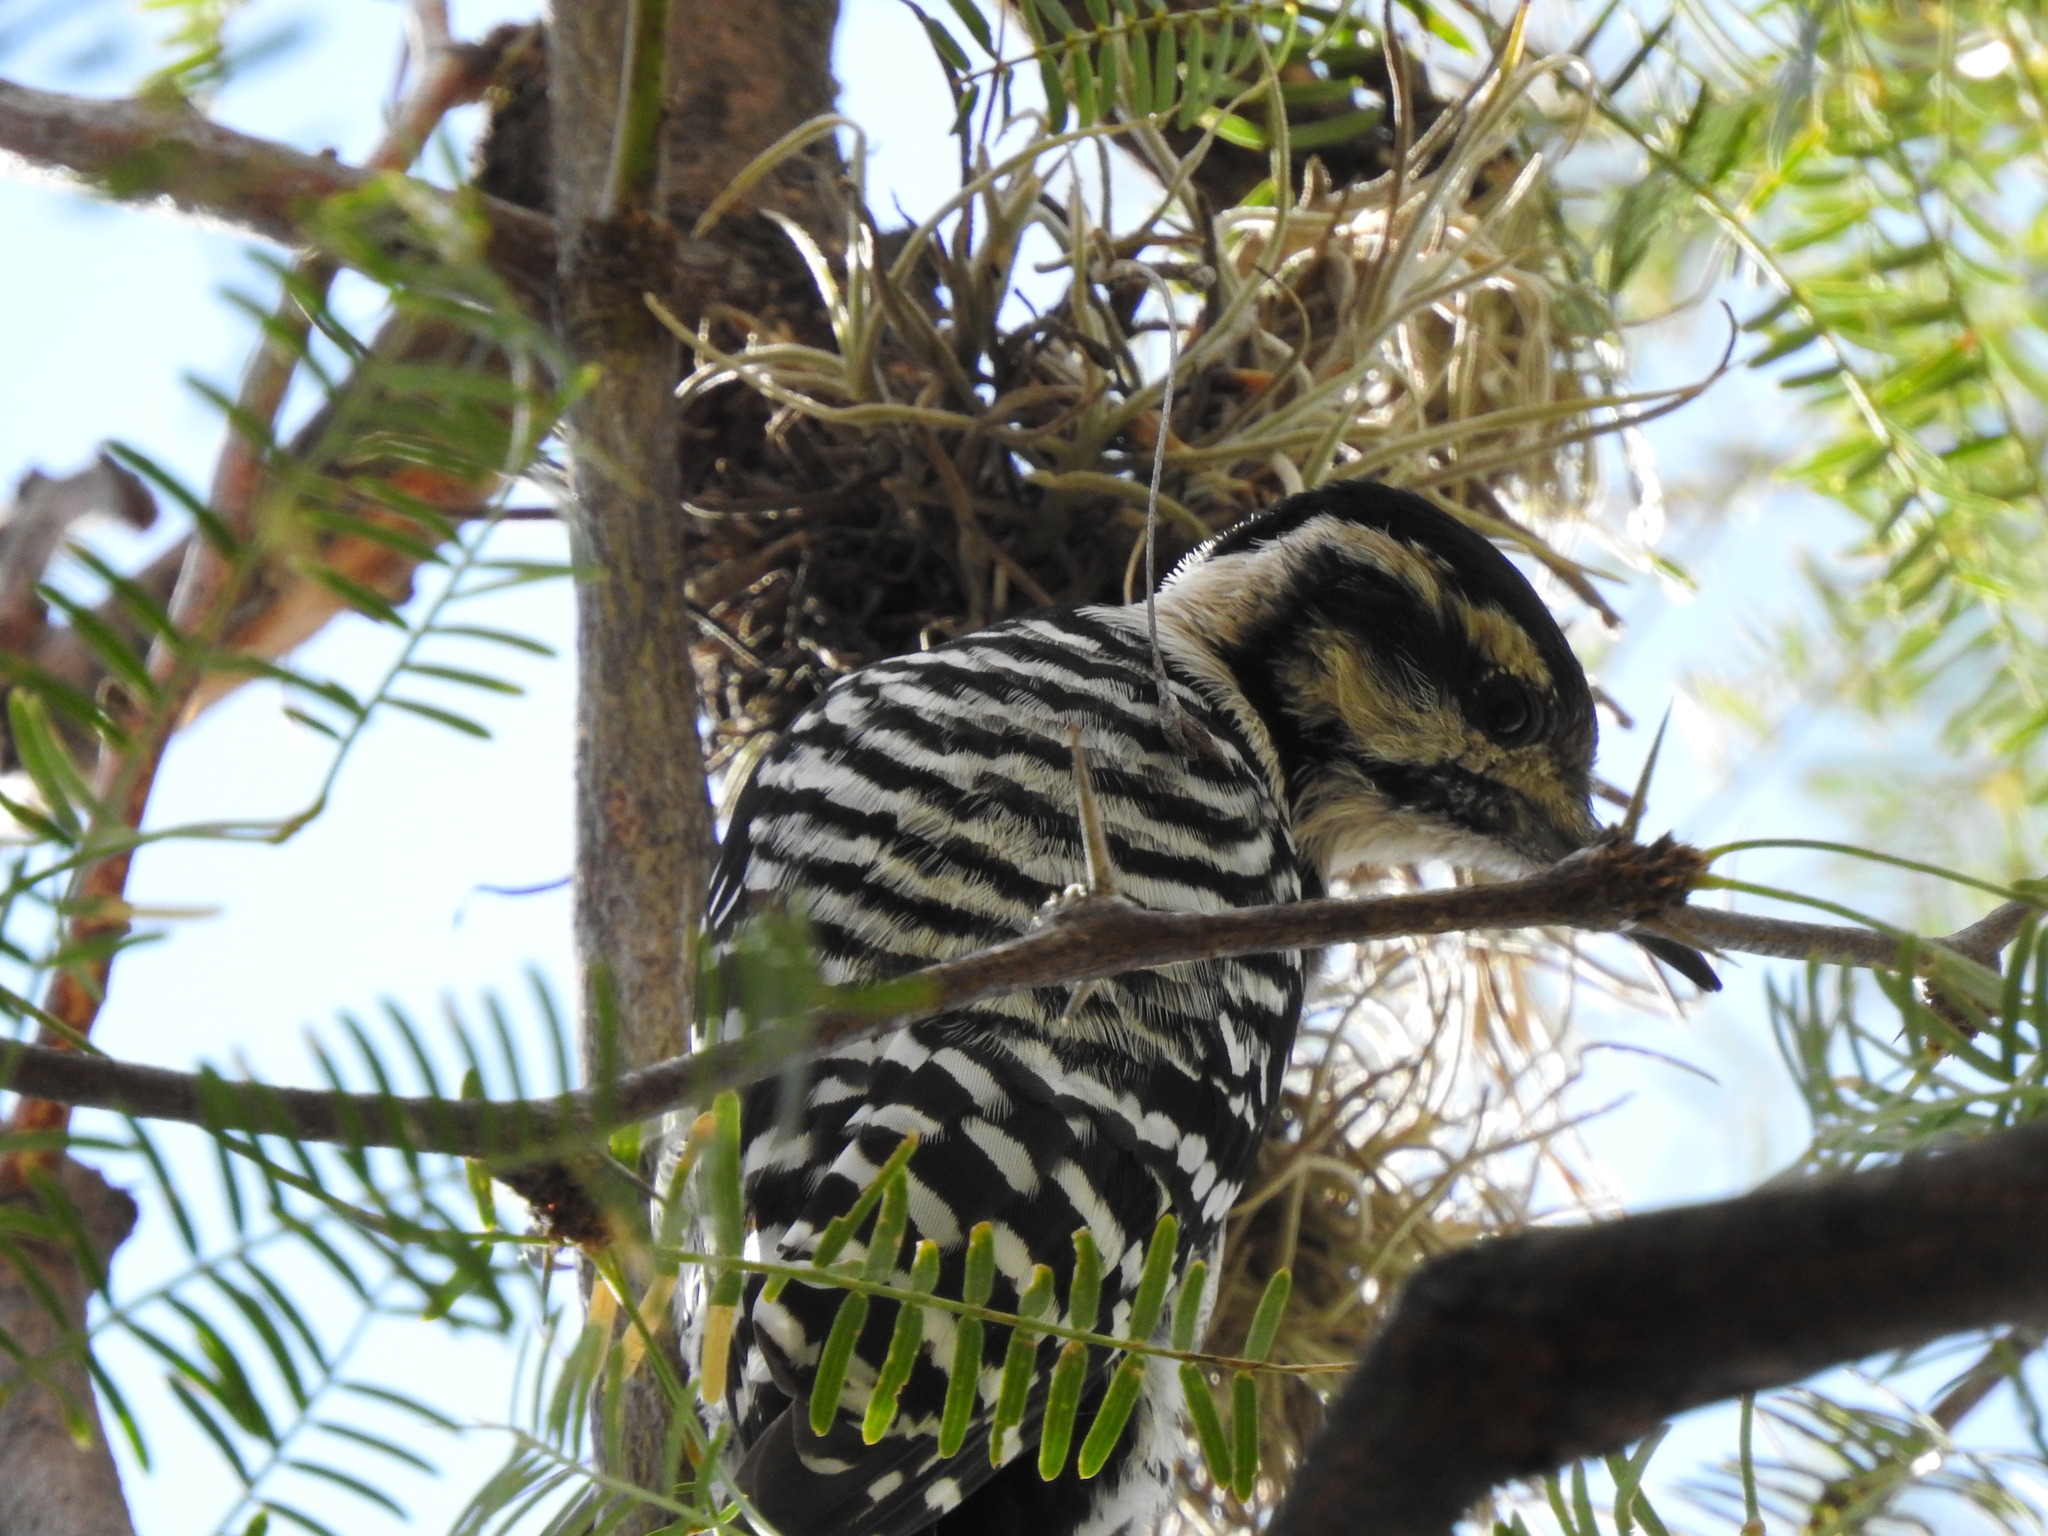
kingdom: Animalia
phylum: Chordata
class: Aves
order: Piciformes
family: Picidae
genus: Dryobates
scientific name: Dryobates scalaris
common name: Ladder-backed woodpecker
